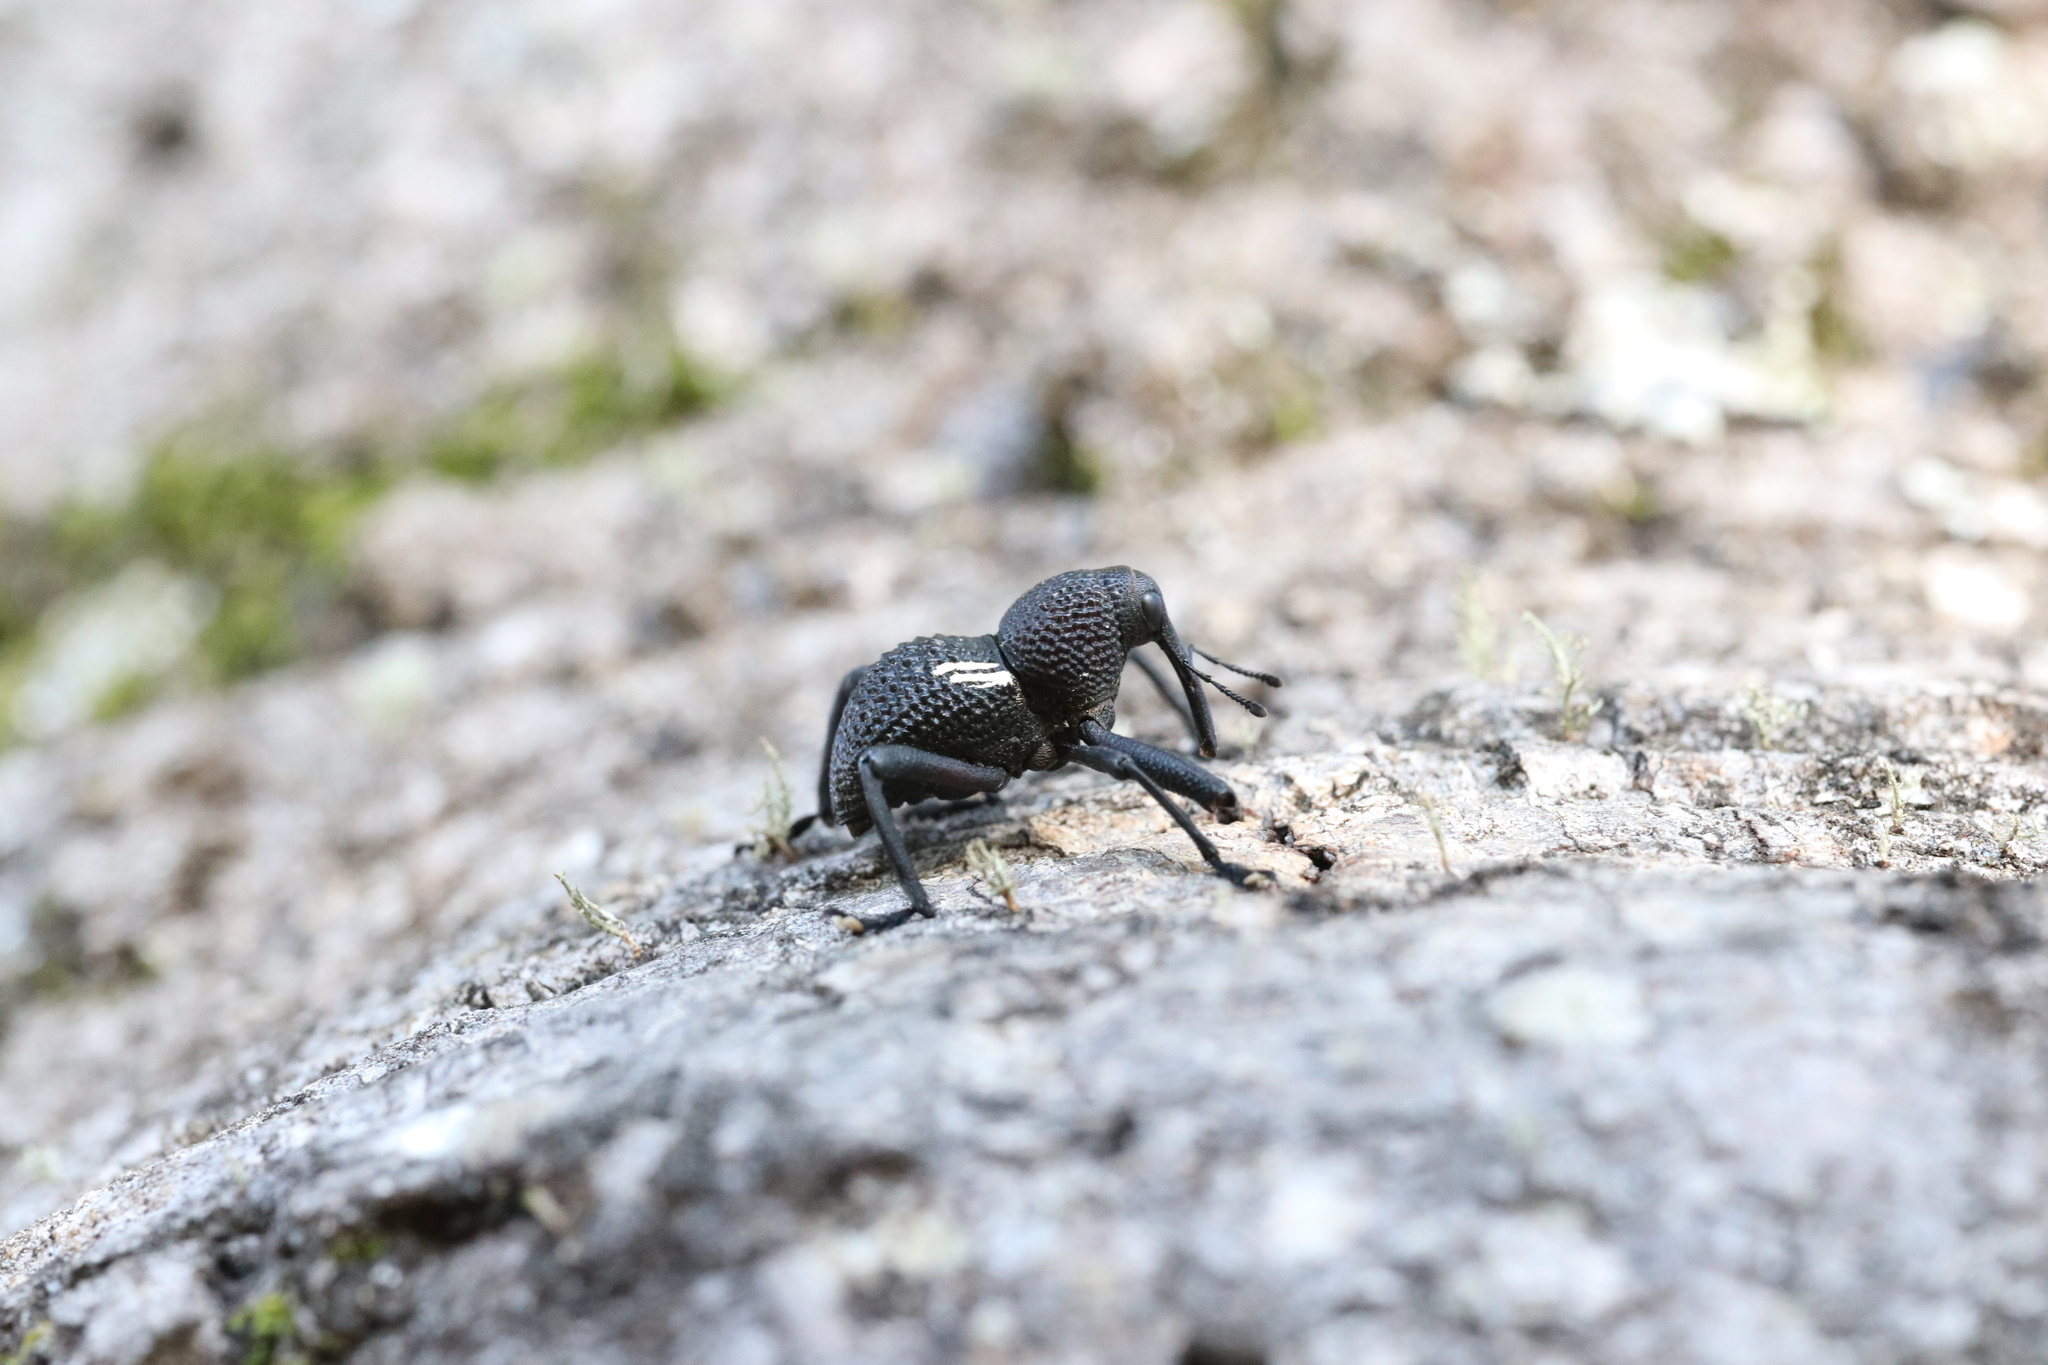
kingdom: Animalia
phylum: Arthropoda
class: Insecta
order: Coleoptera
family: Curculionidae
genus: Rhyephenes
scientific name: Rhyephenes humeralis
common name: Araè±ita chilena del pino
